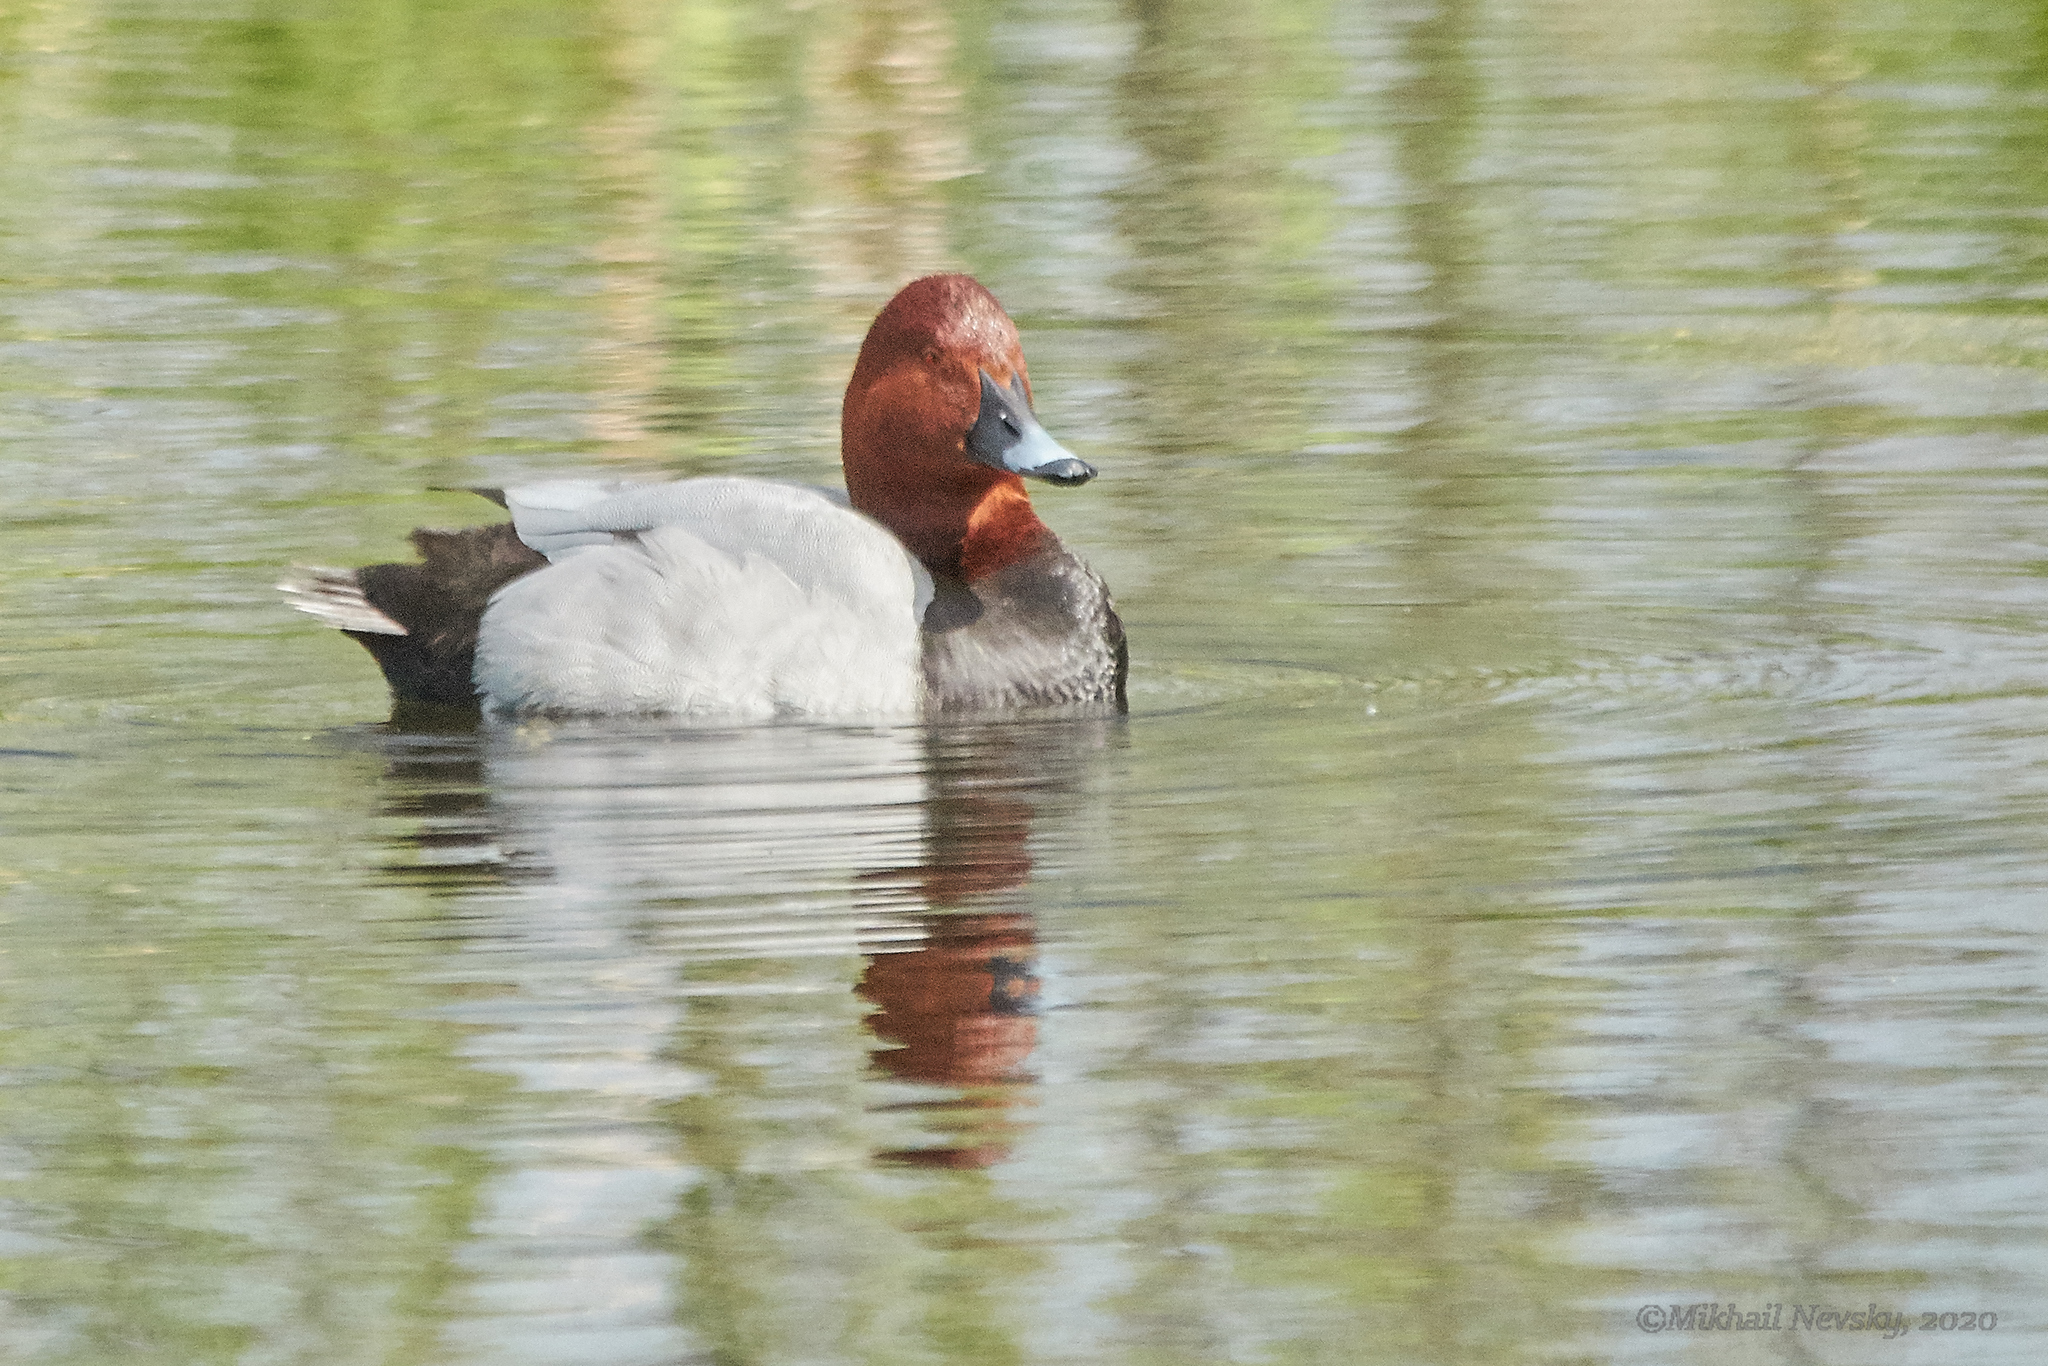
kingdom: Animalia
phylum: Chordata
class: Aves
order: Anseriformes
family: Anatidae
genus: Aythya
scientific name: Aythya ferina
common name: Common pochard
